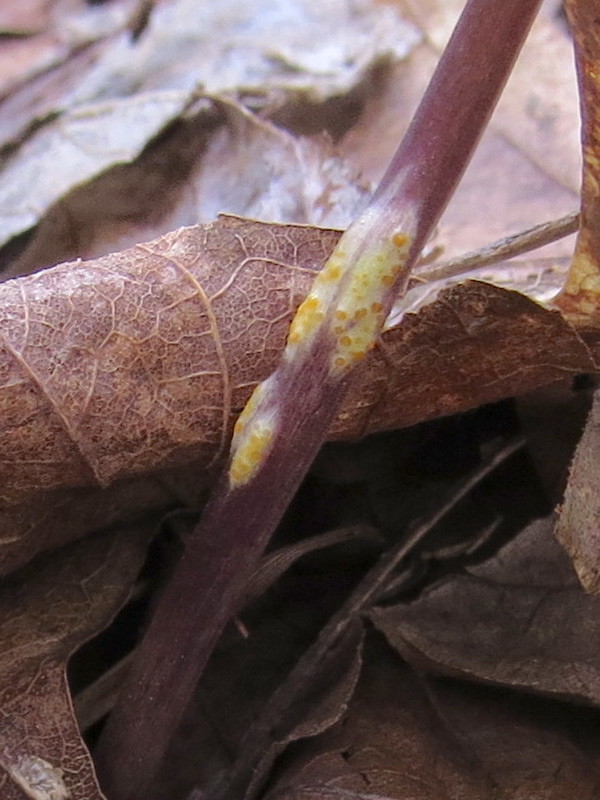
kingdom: Fungi
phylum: Basidiomycota
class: Pucciniomycetes
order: Pucciniales
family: Pucciniaceae
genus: Puccinia
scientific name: Puccinia violae
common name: Violet rust
